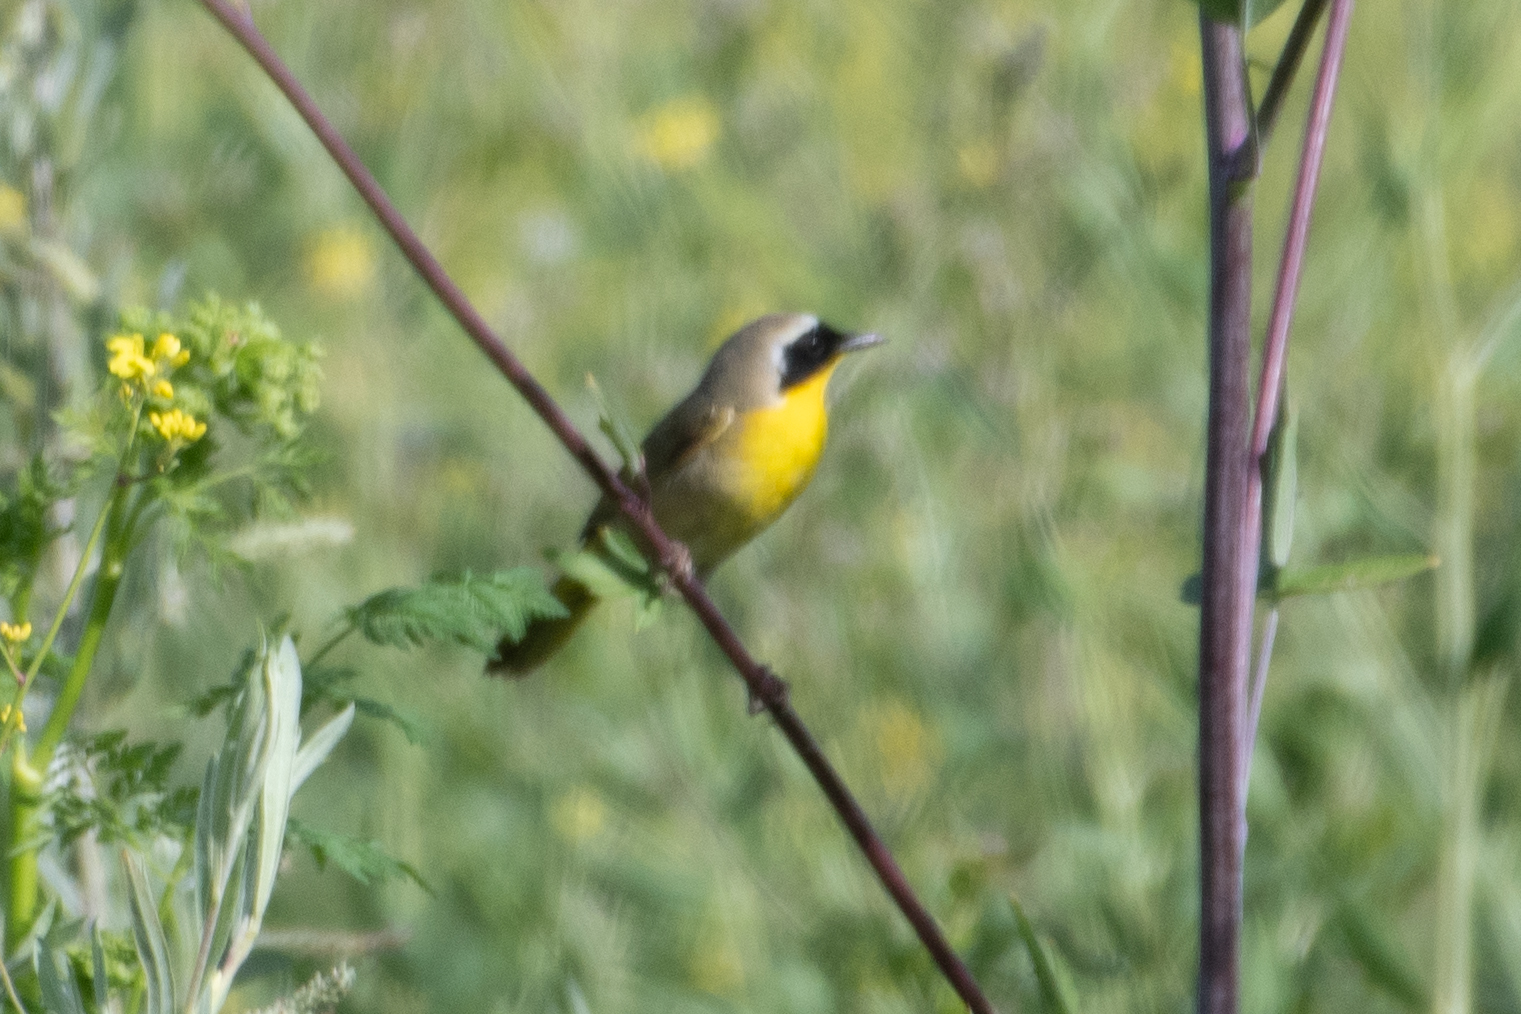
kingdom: Animalia
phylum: Chordata
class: Aves
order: Passeriformes
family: Parulidae
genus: Geothlypis
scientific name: Geothlypis trichas
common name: Common yellowthroat
